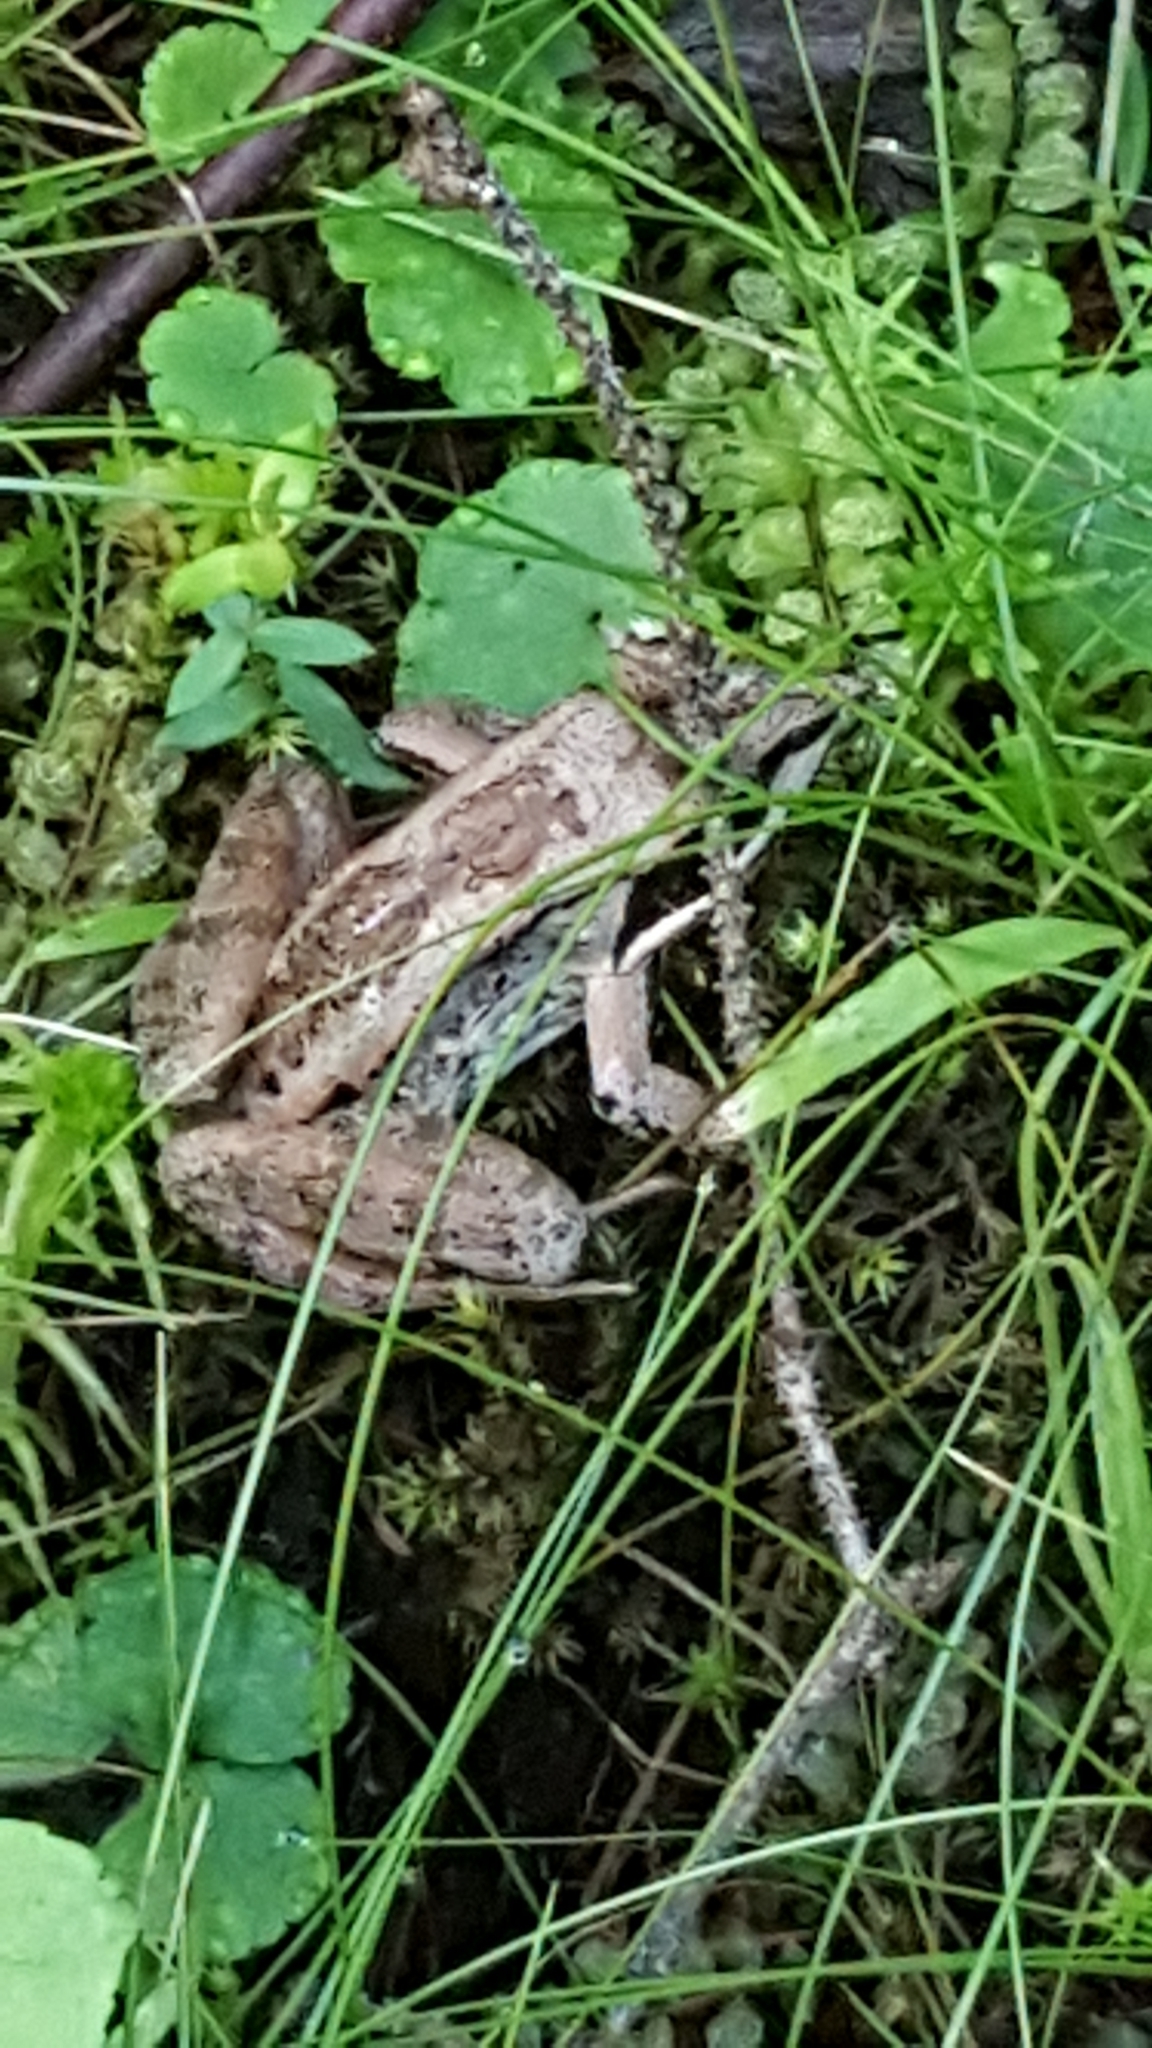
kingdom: Animalia
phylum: Chordata
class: Amphibia
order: Anura
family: Ranidae
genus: Lithobates
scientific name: Lithobates sylvaticus
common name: Wood frog
